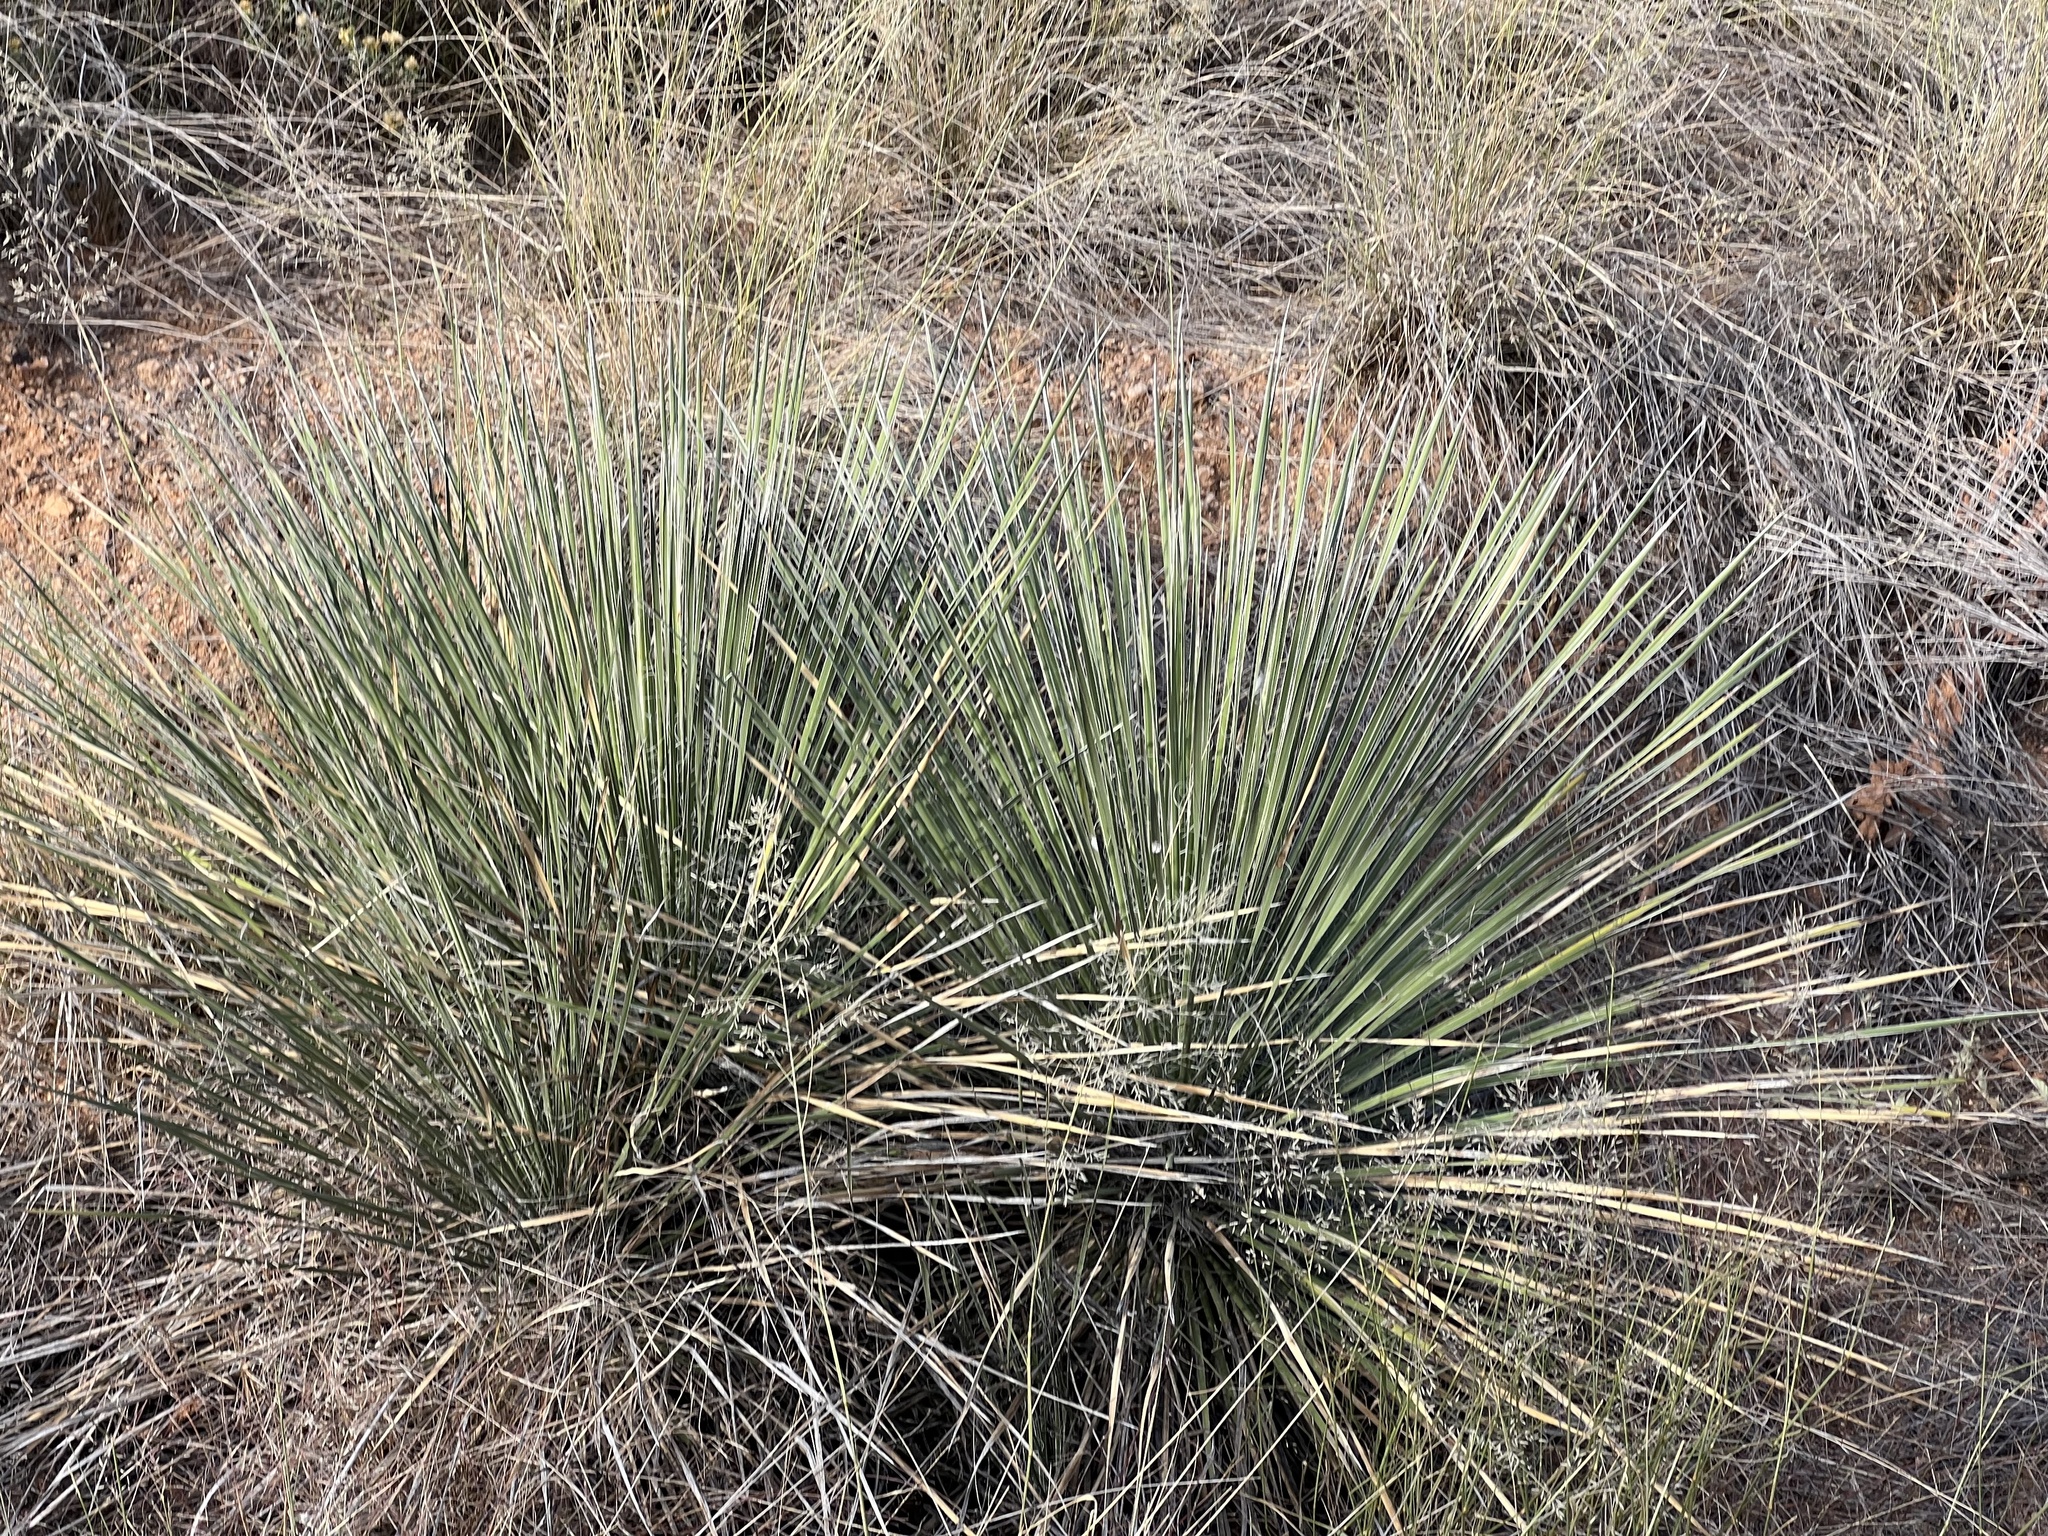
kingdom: Plantae
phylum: Tracheophyta
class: Liliopsida
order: Asparagales
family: Asparagaceae
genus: Yucca
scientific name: Yucca elata
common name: Palmella
